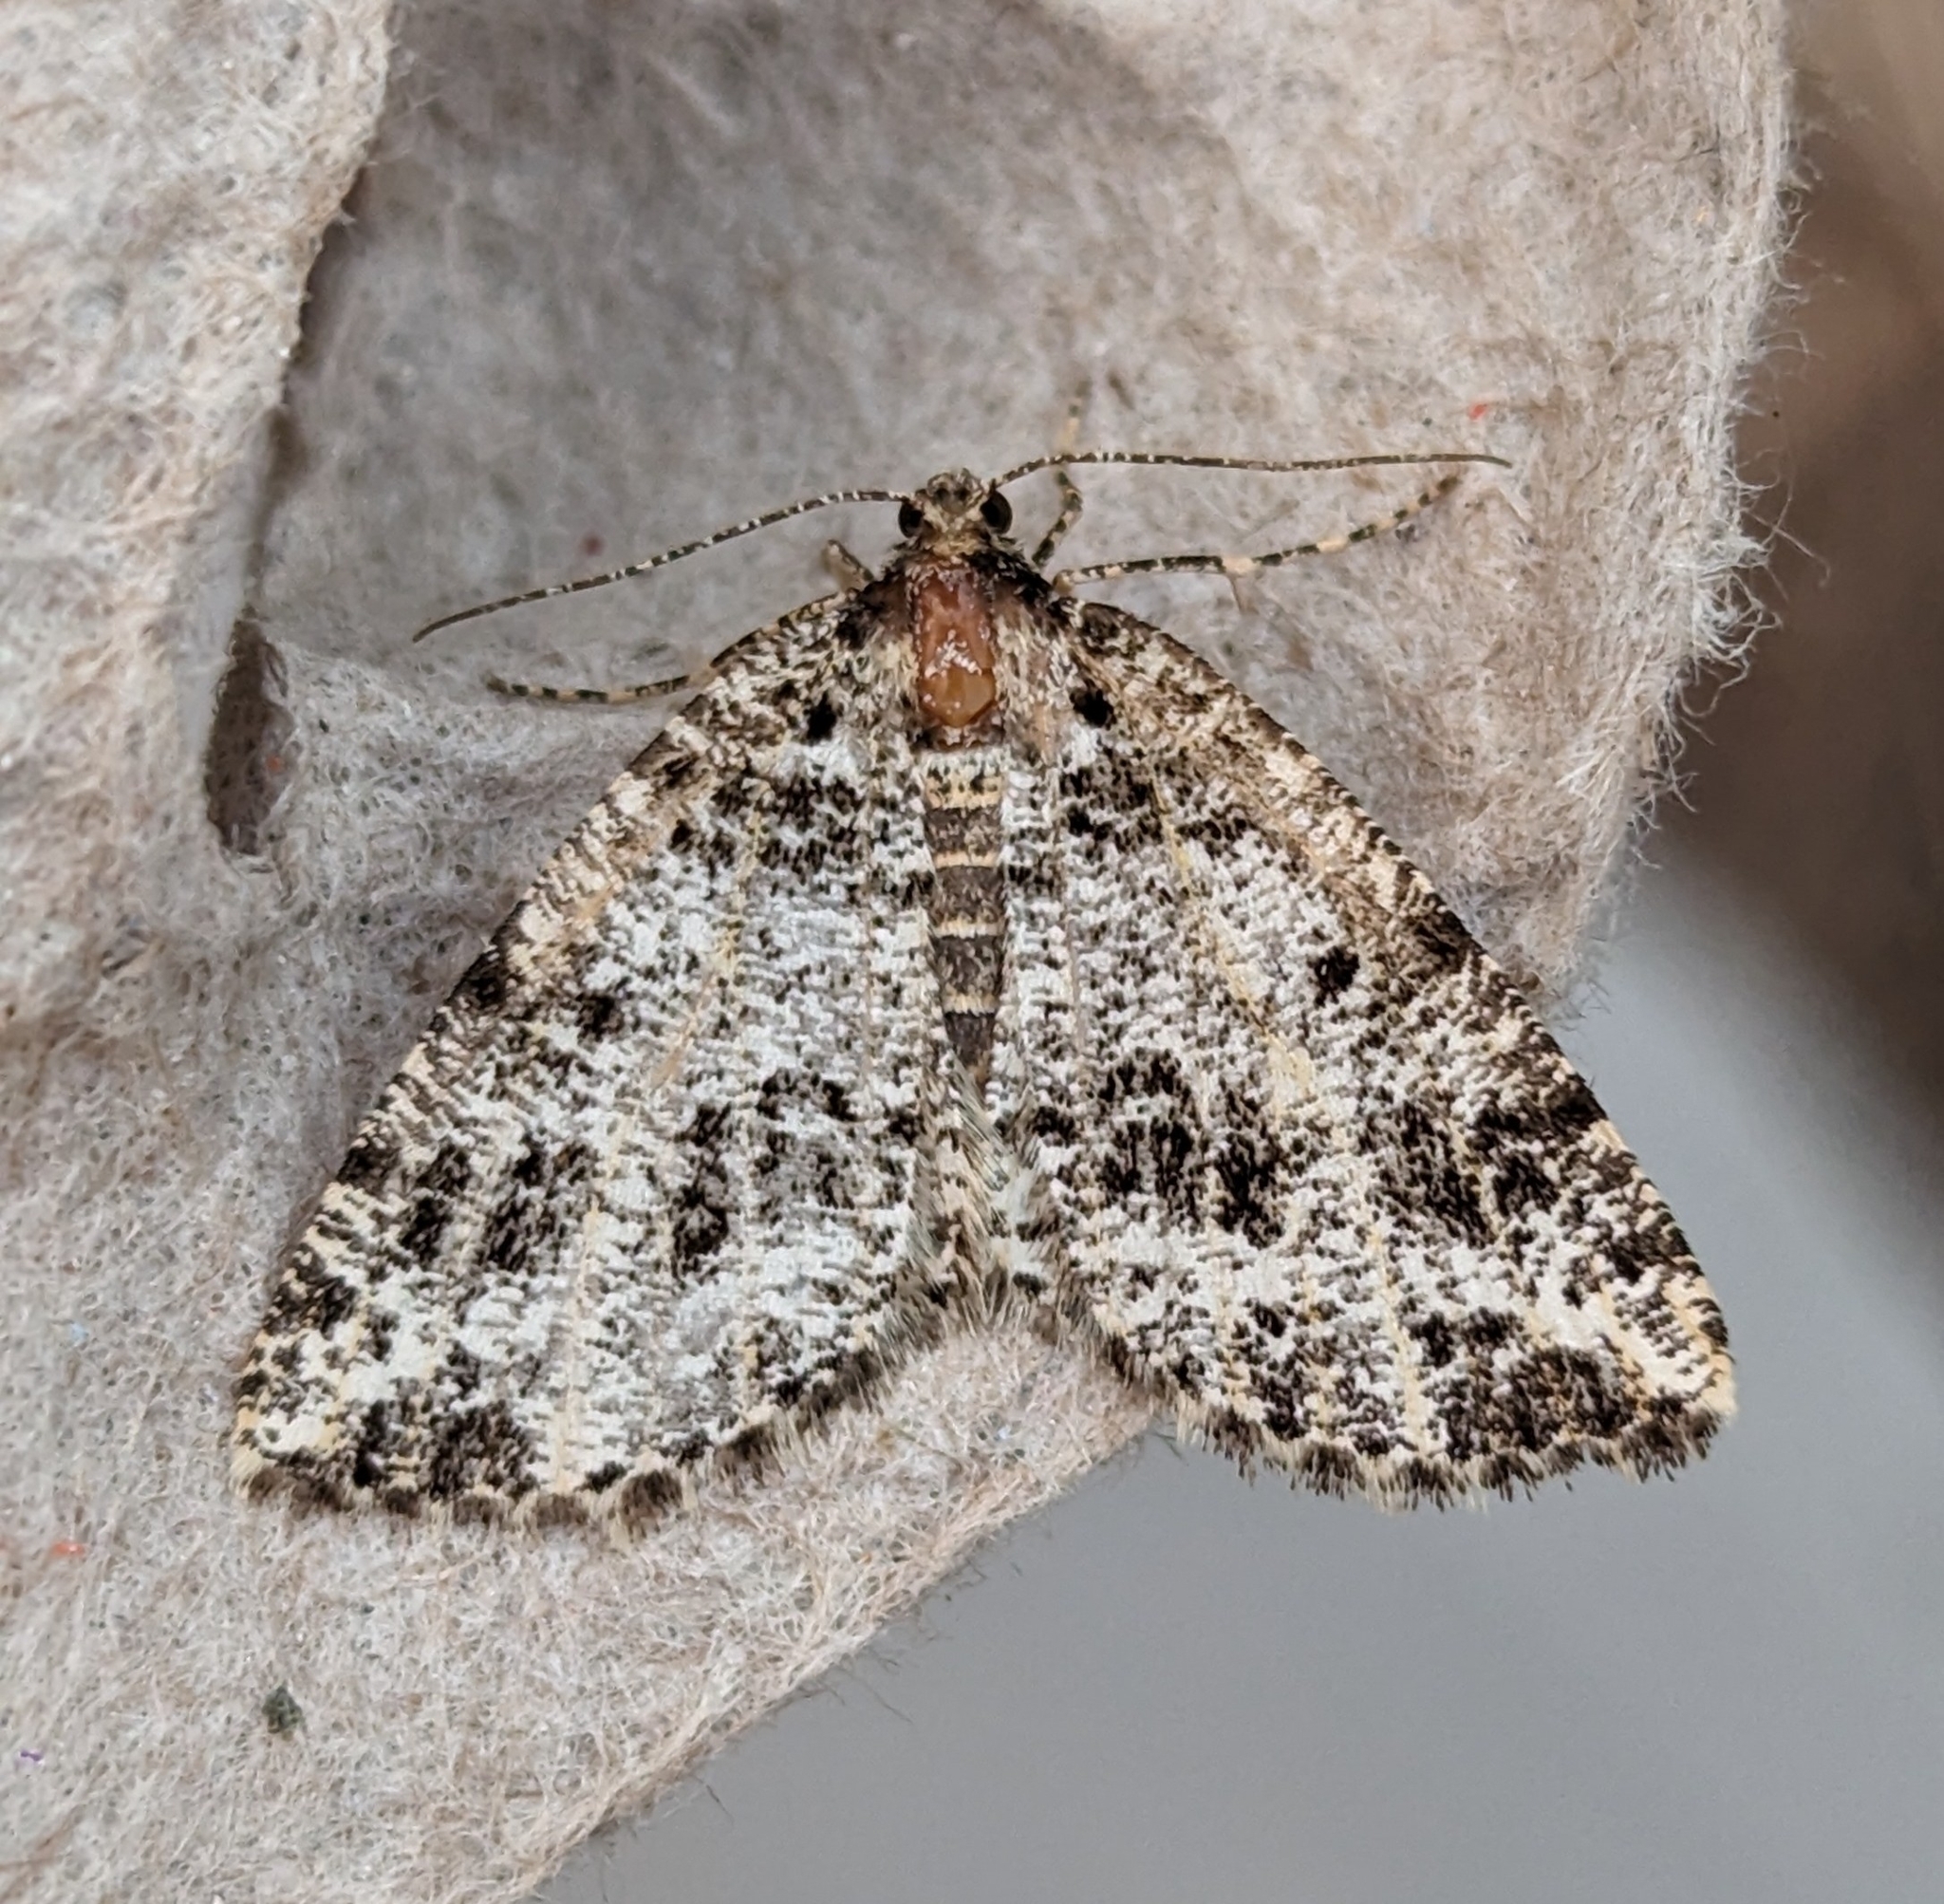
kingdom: Animalia
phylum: Arthropoda
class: Insecta
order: Lepidoptera
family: Geometridae
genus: Orthofidonia
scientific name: Orthofidonia tinctaria
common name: Marbled wave
